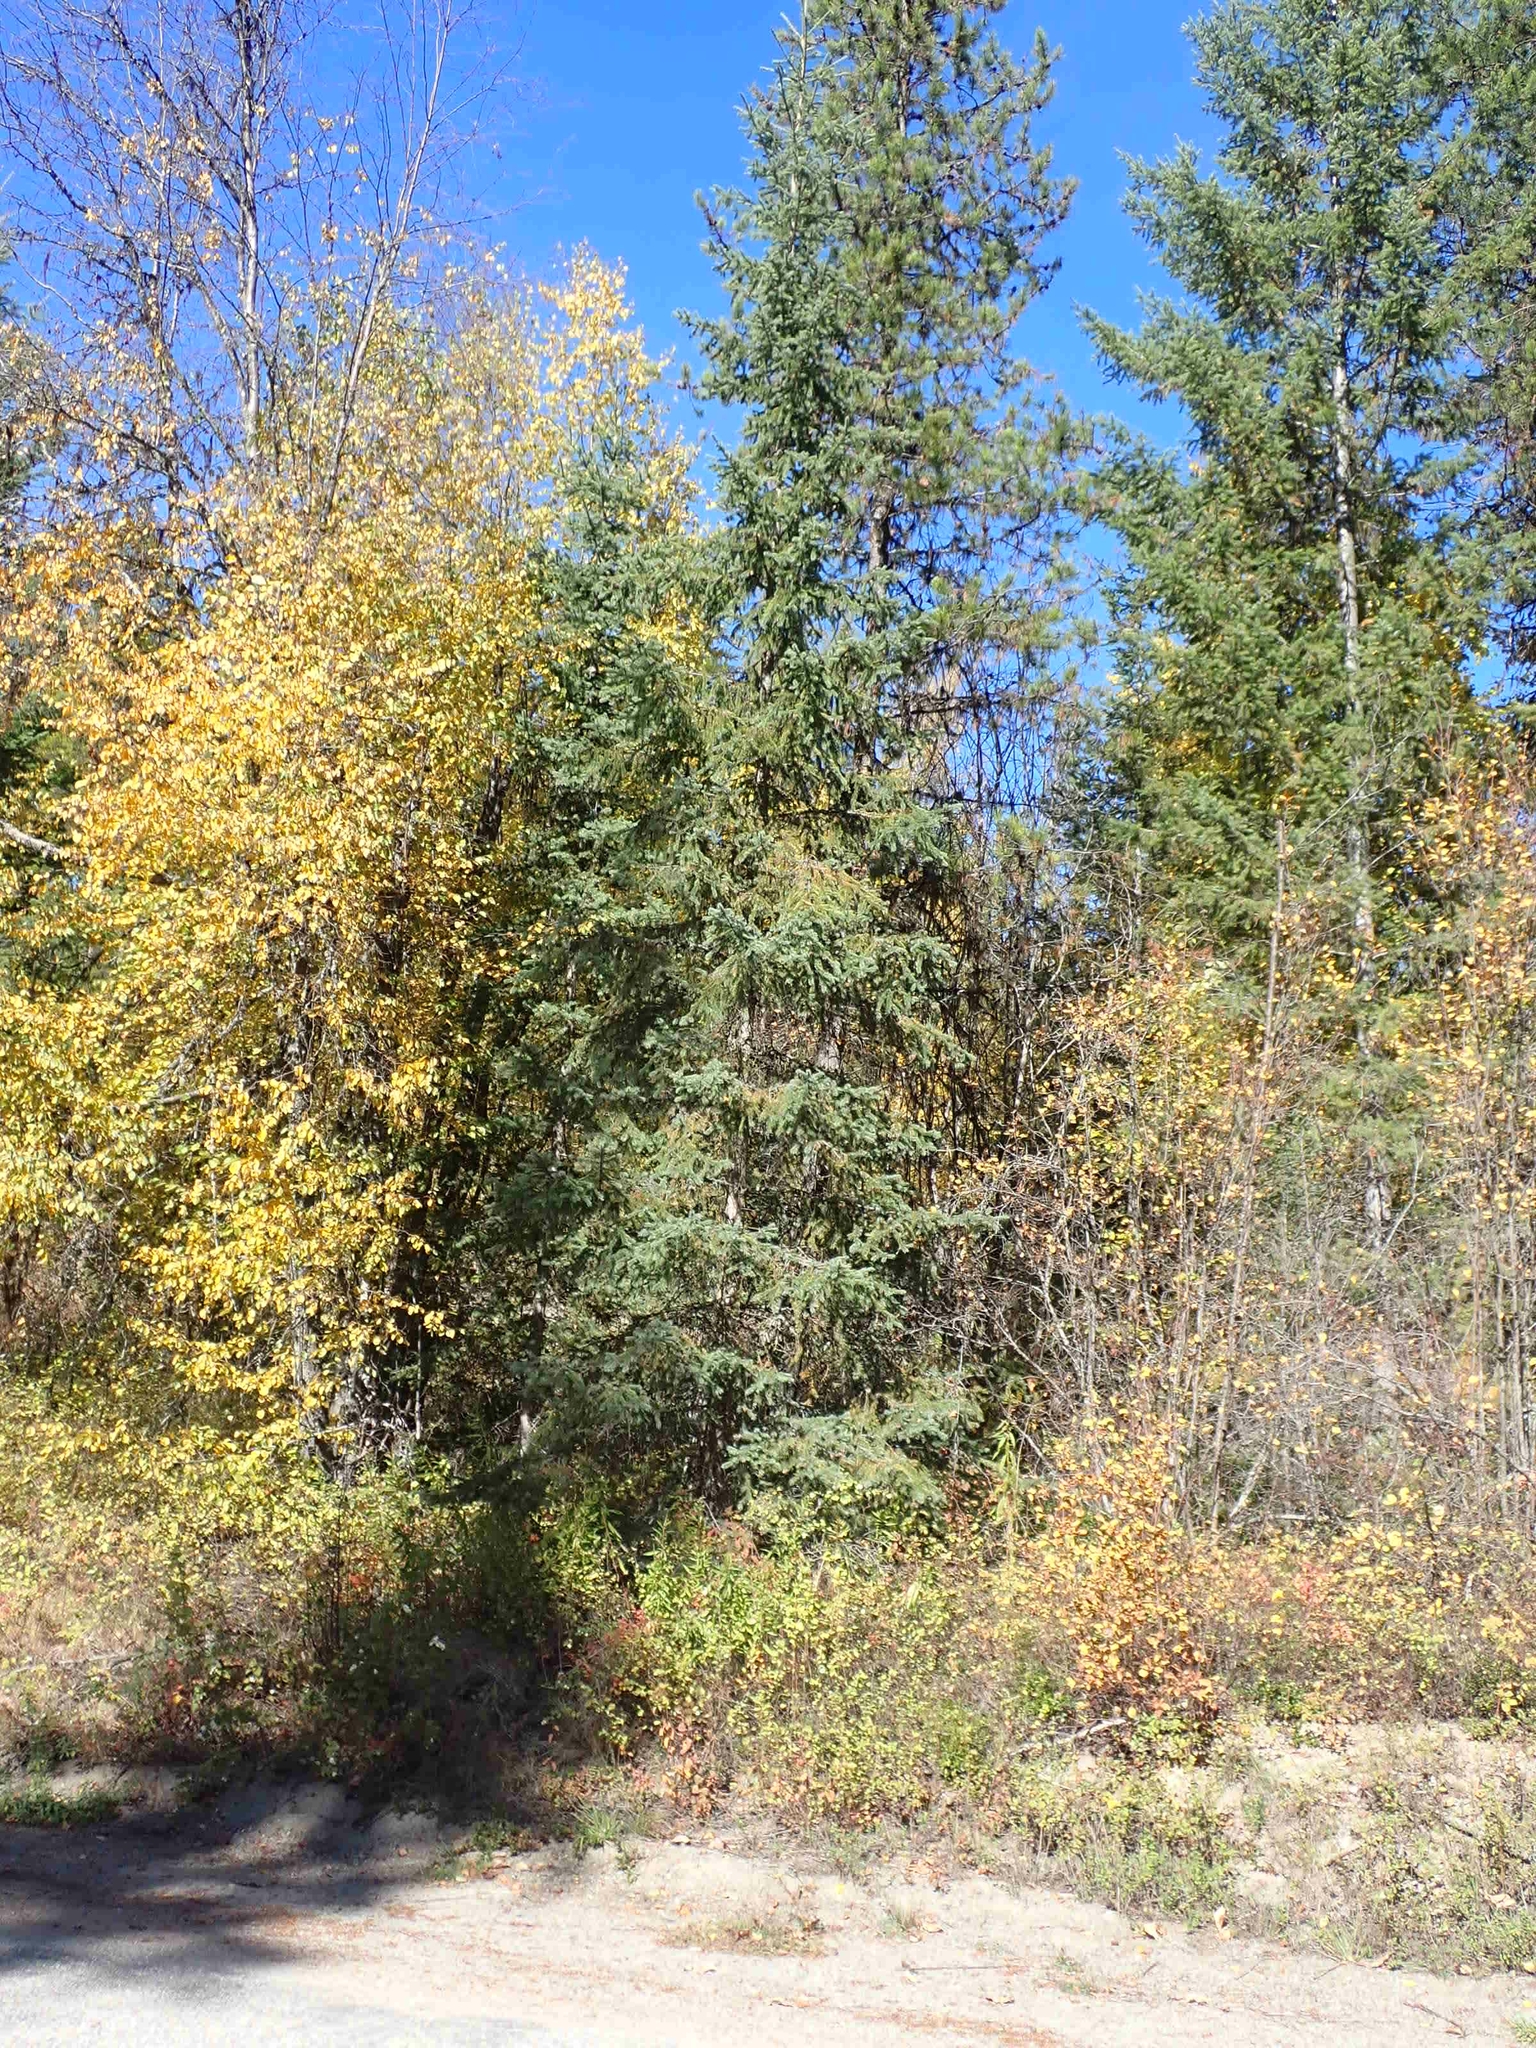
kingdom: Plantae
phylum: Tracheophyta
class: Pinopsida
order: Pinales
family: Pinaceae
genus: Picea
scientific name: Picea engelmannii
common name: Engelmann spruce
